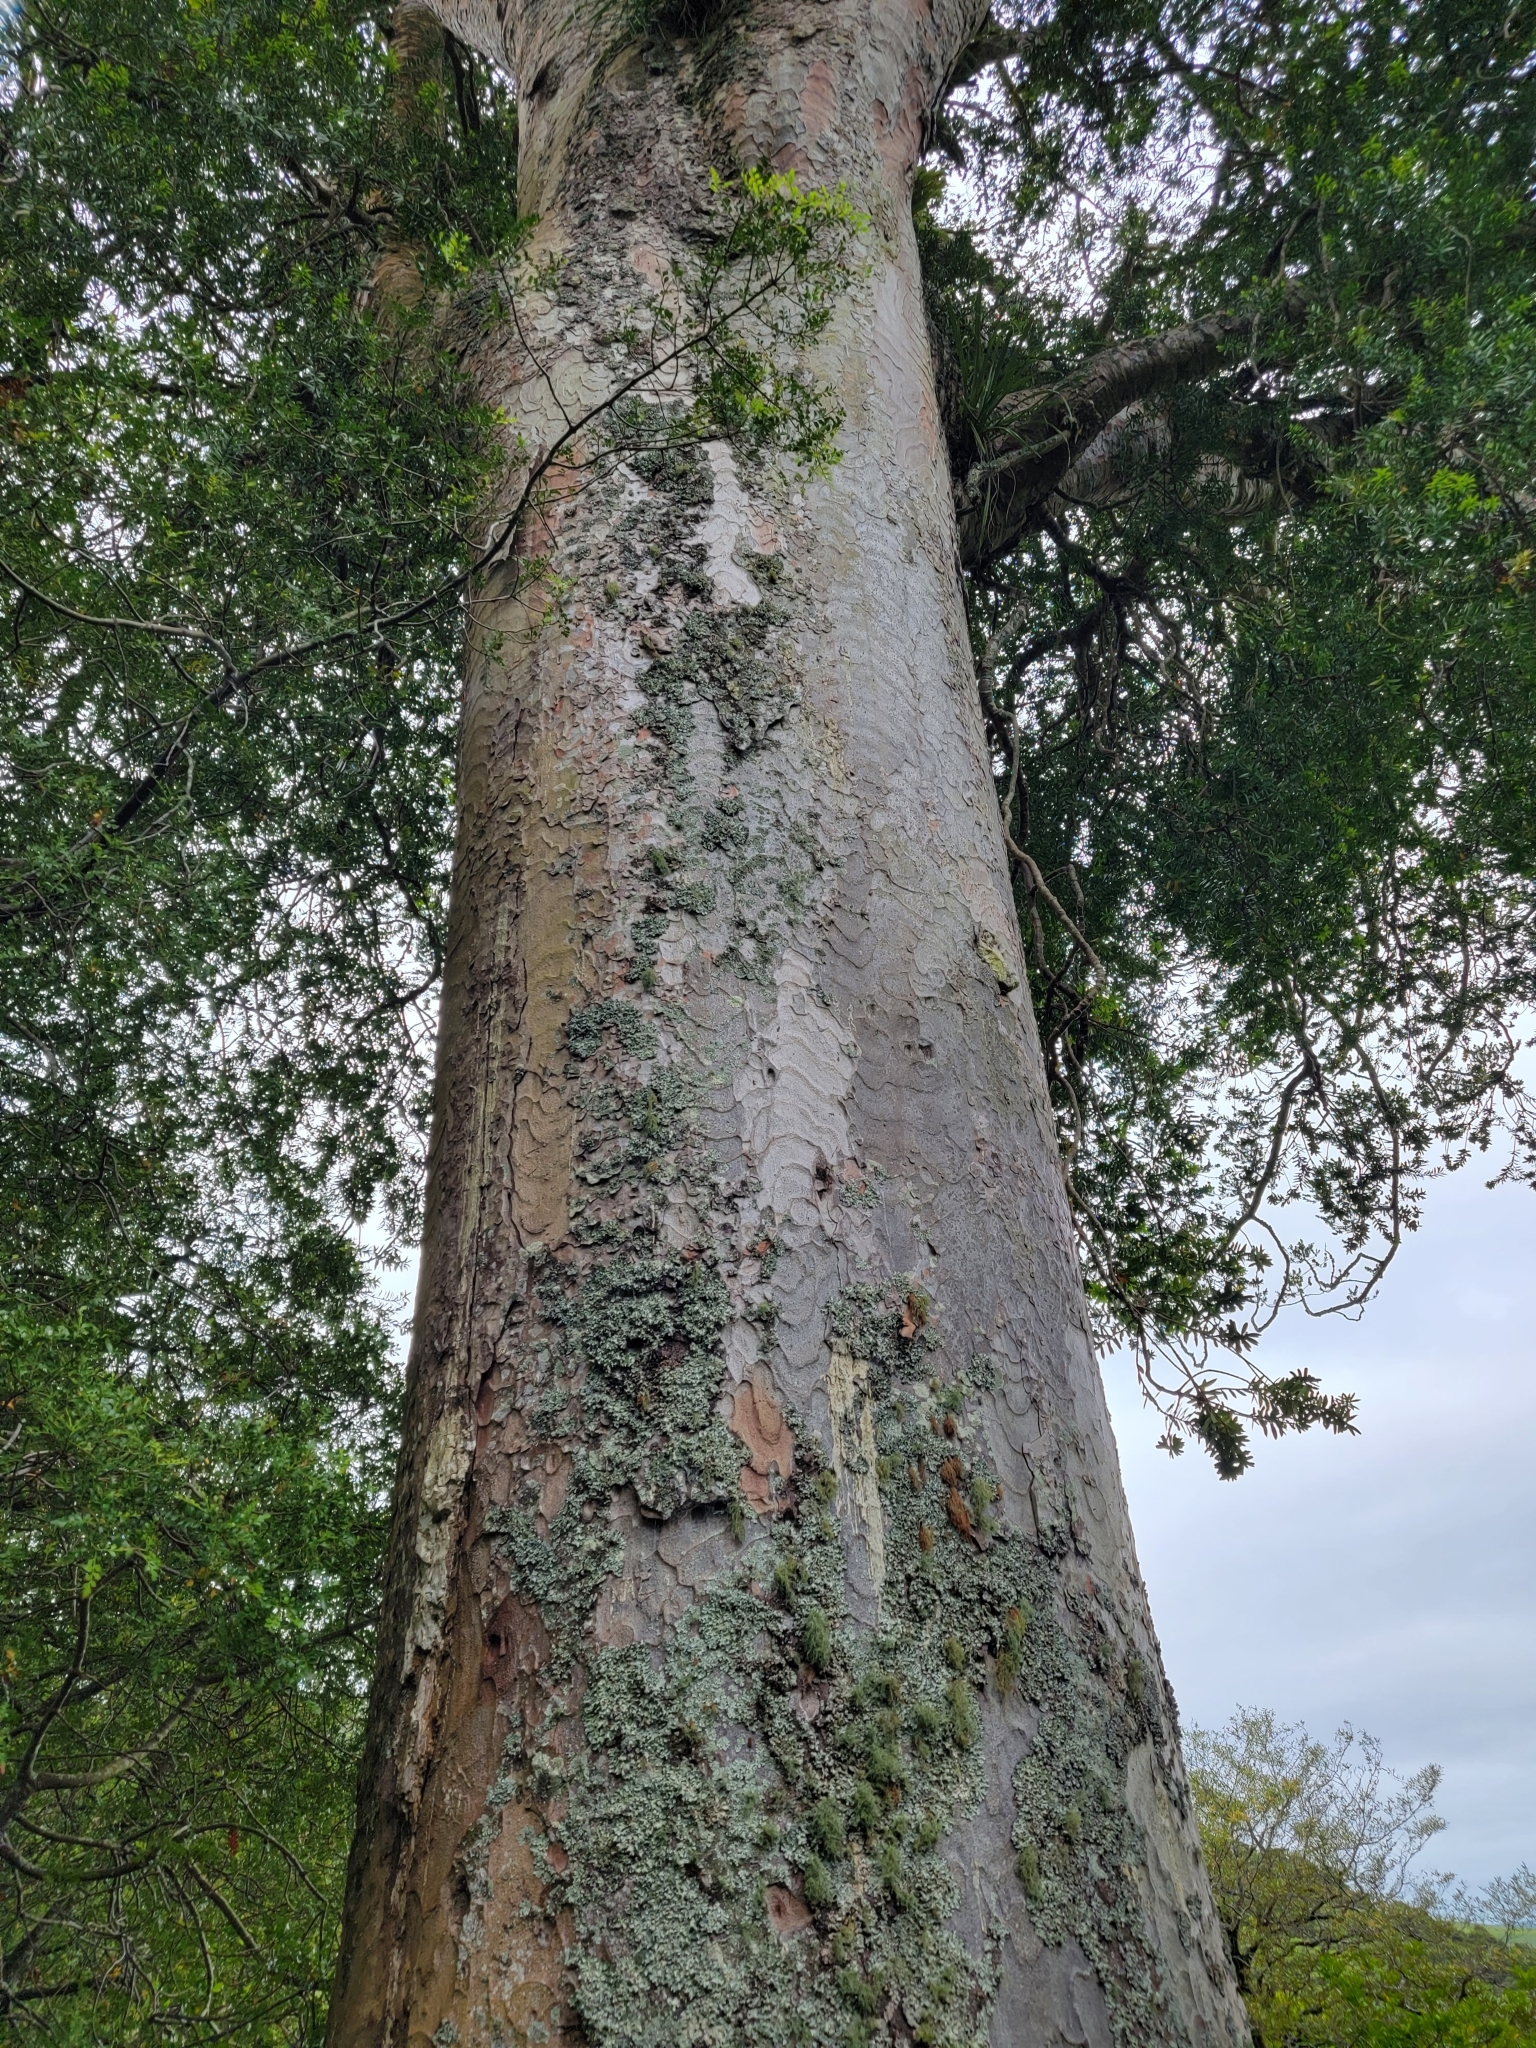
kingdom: Plantae
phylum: Tracheophyta
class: Pinopsida
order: Pinales
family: Araucariaceae
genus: Agathis
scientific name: Agathis australis
